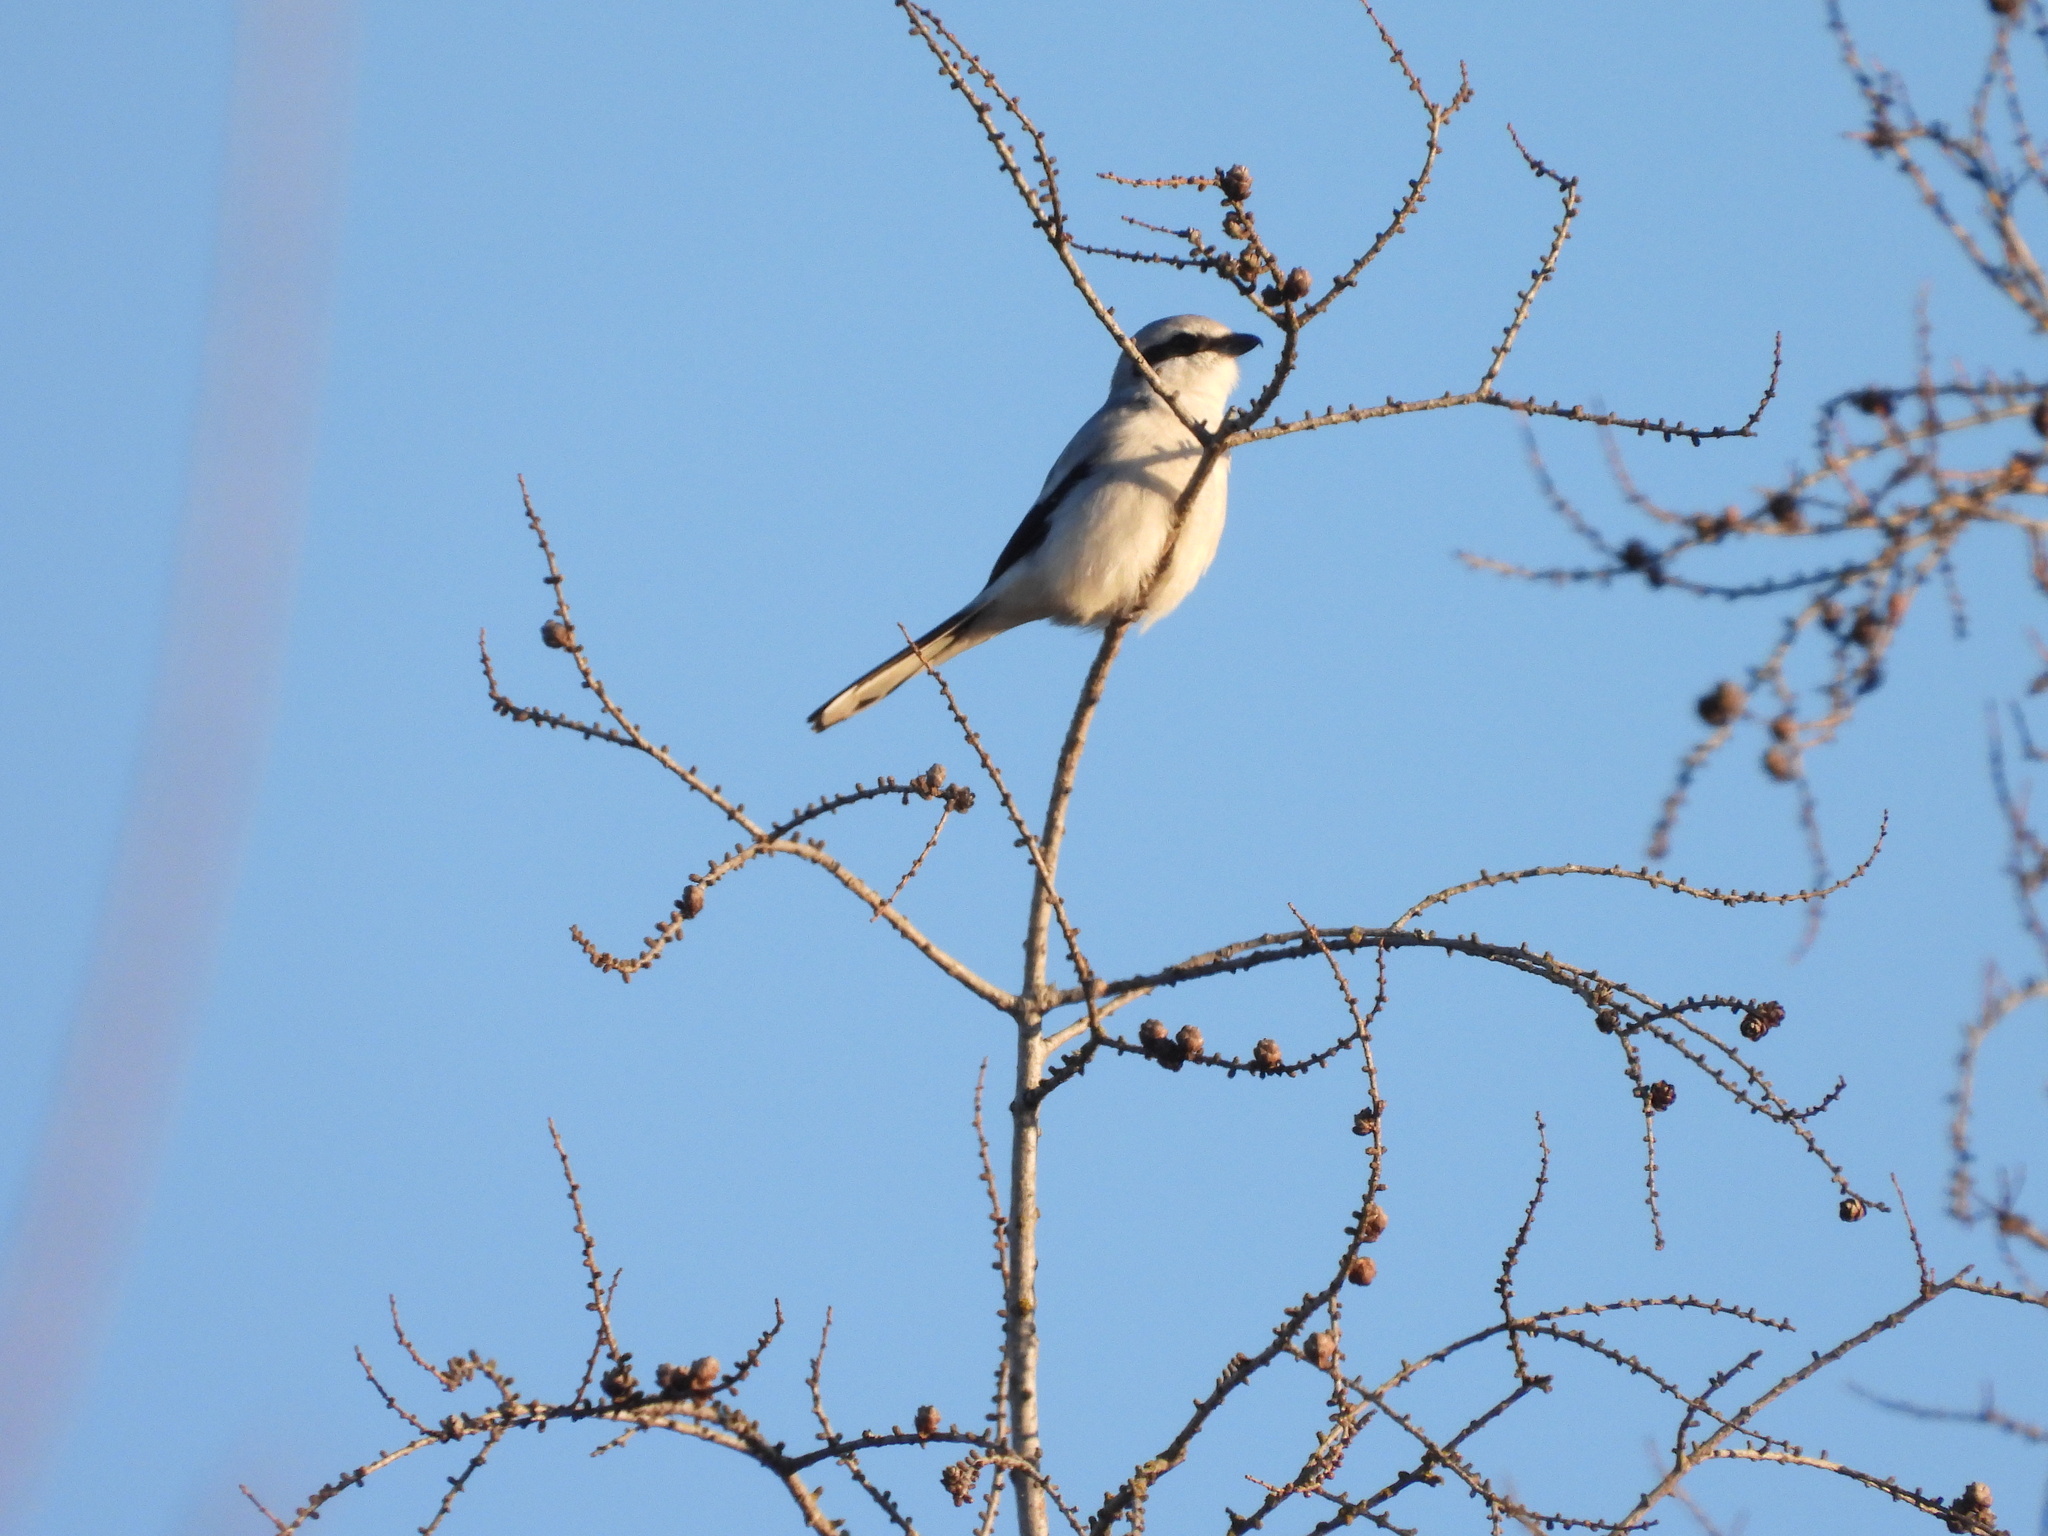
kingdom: Animalia
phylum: Chordata
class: Aves
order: Passeriformes
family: Laniidae
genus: Lanius
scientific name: Lanius borealis
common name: Northern shrike
